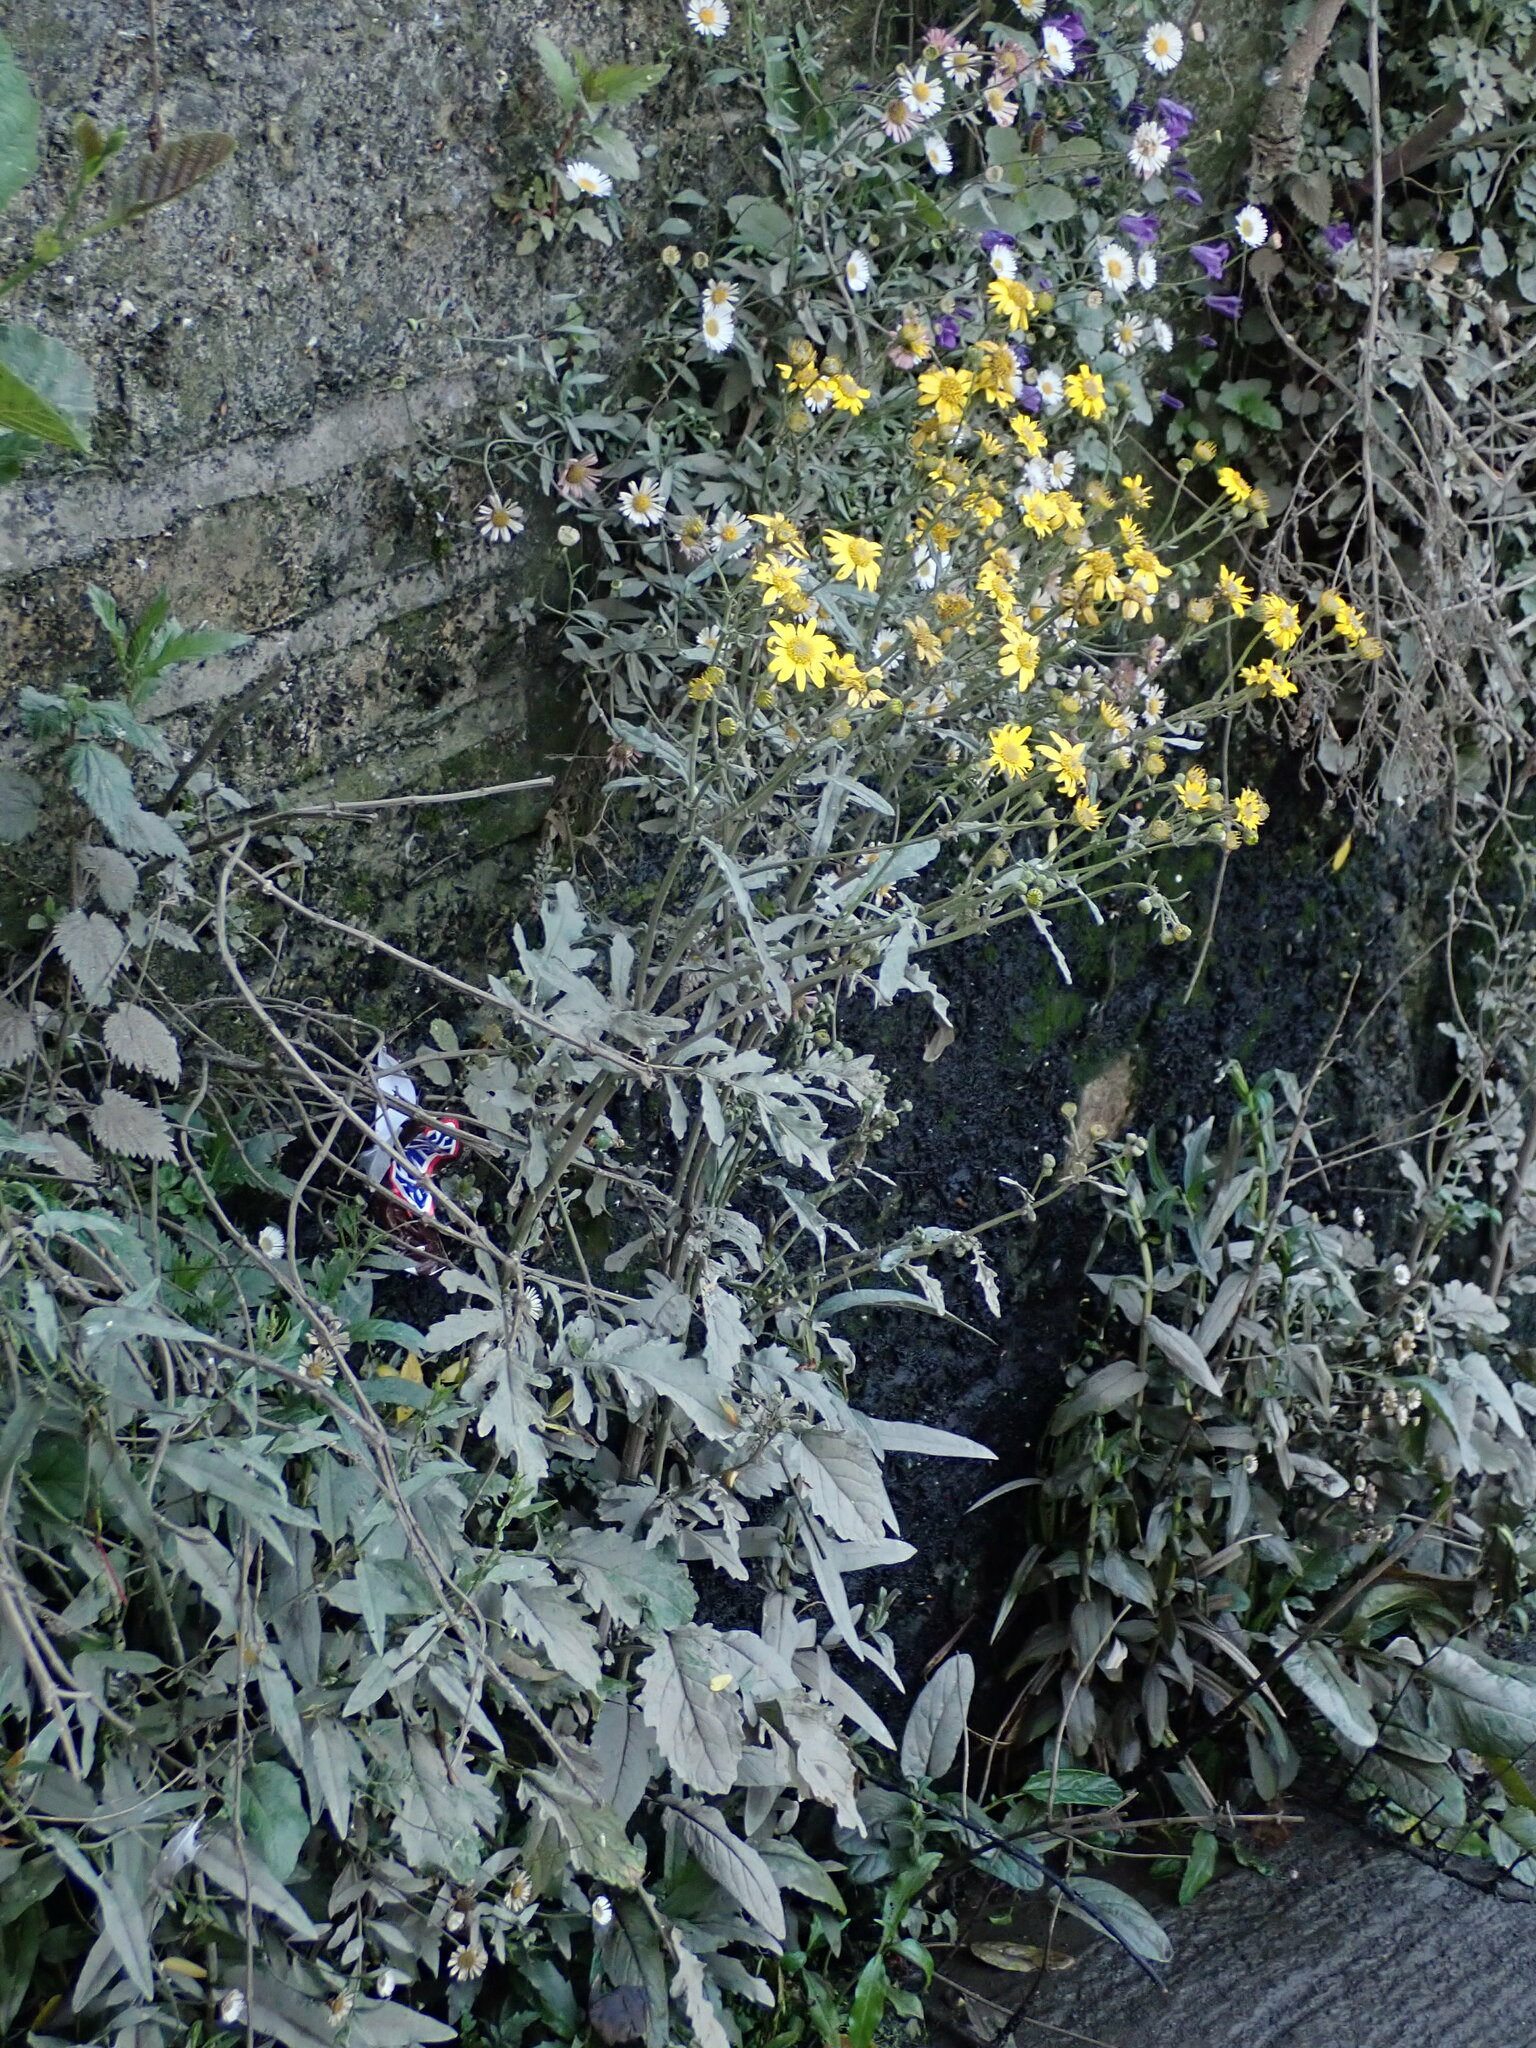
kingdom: Plantae
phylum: Tracheophyta
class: Magnoliopsida
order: Asterales
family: Asteraceae
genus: Jacobaea
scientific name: Jacobaea aquatica
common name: Water ragwort
